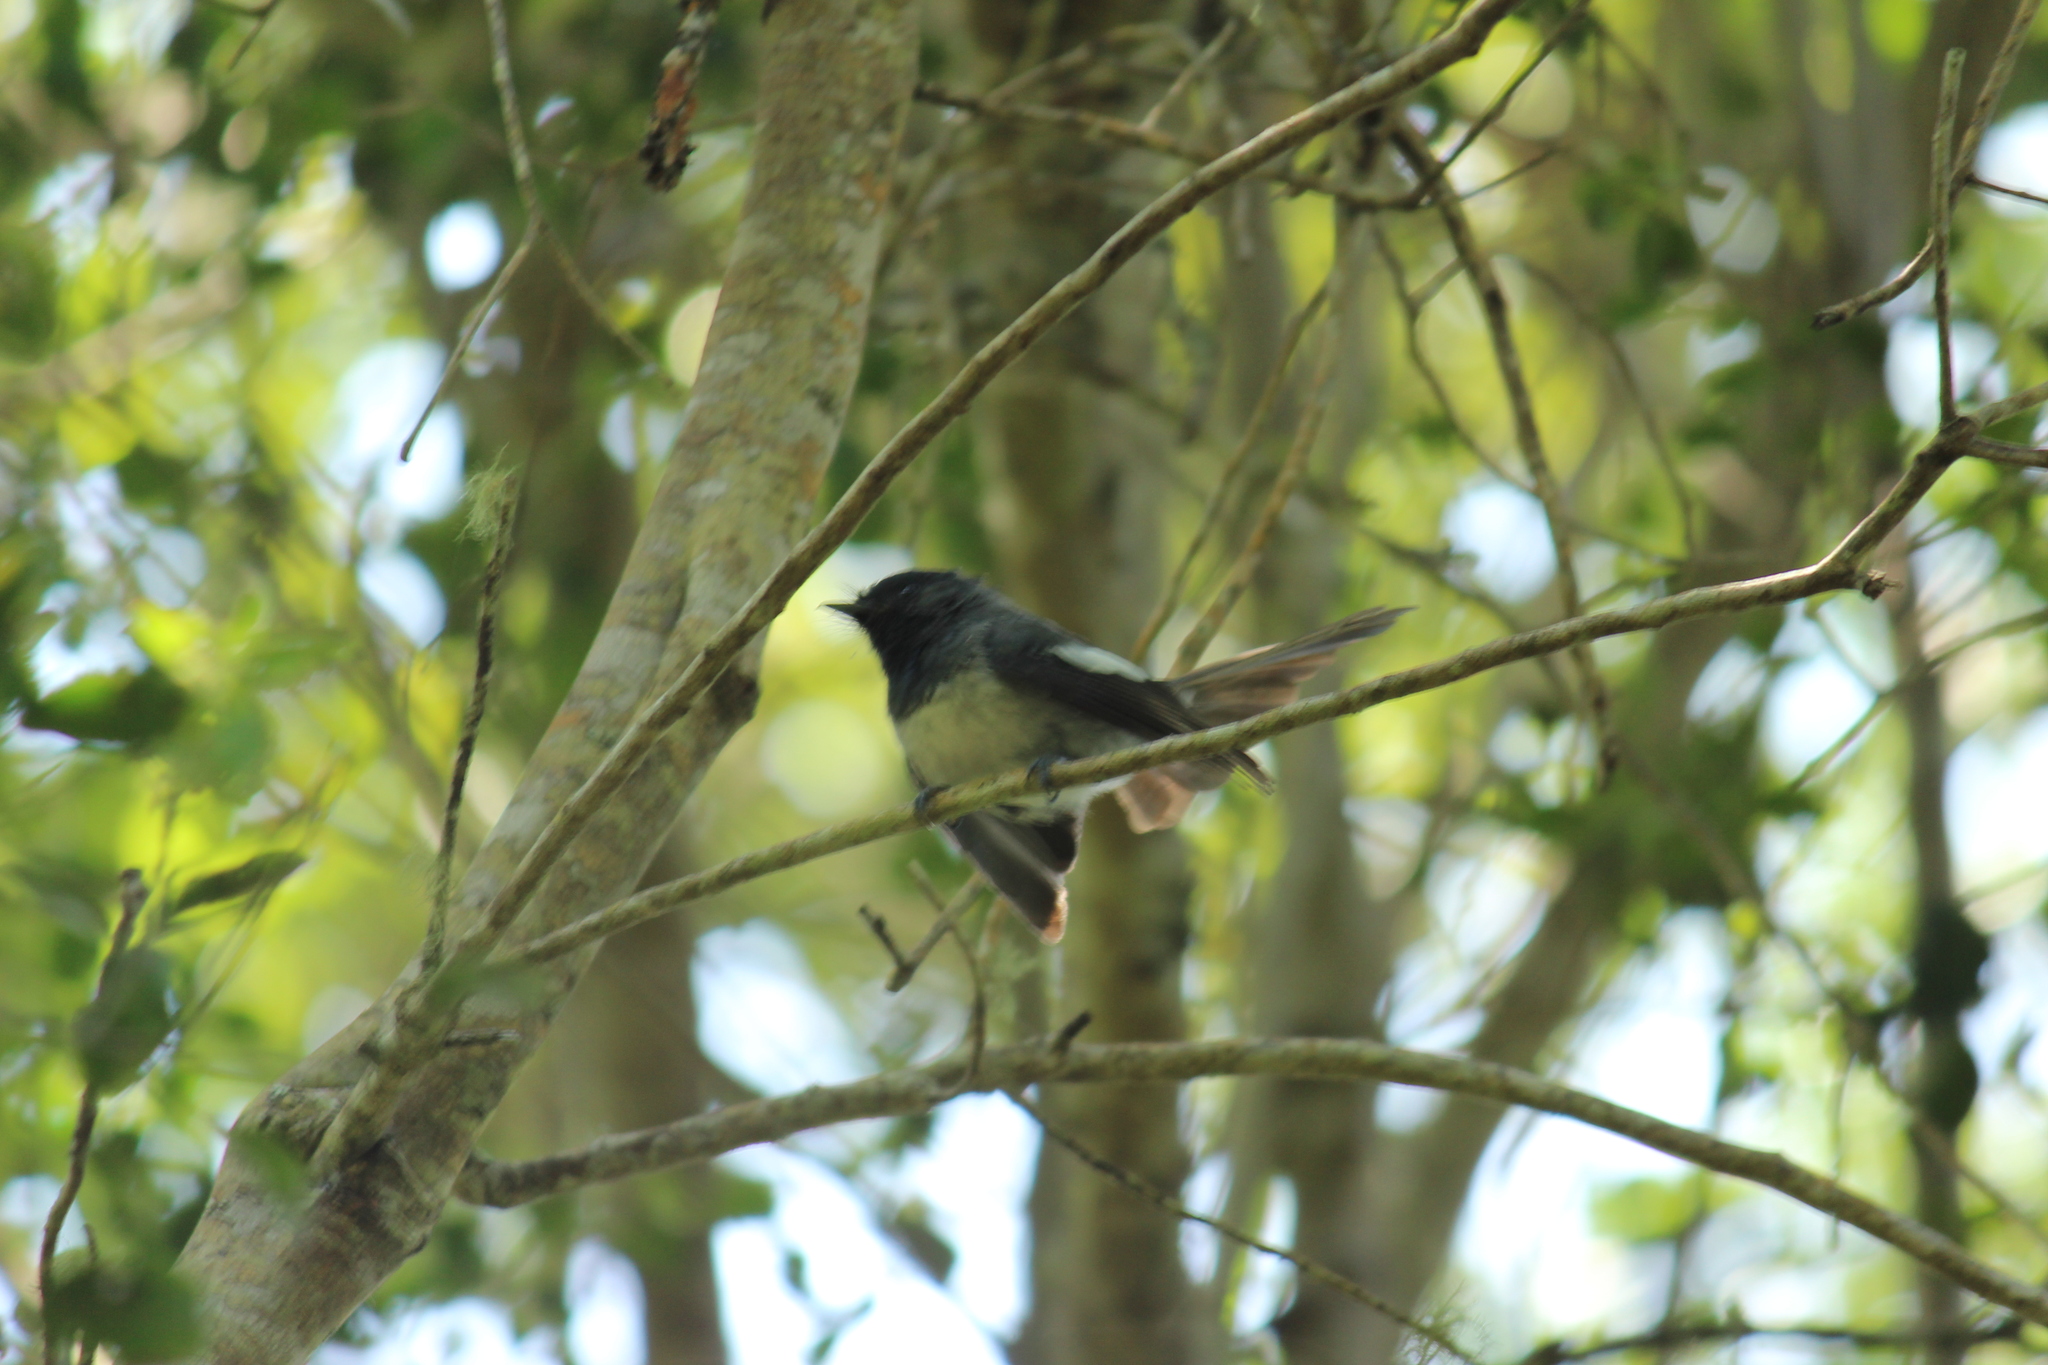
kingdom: Animalia
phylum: Chordata
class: Aves
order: Passeriformes
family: Monarchidae
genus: Trochocercus
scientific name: Trochocercus cyanomelas
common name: Blue-mantled crested flycatcher
